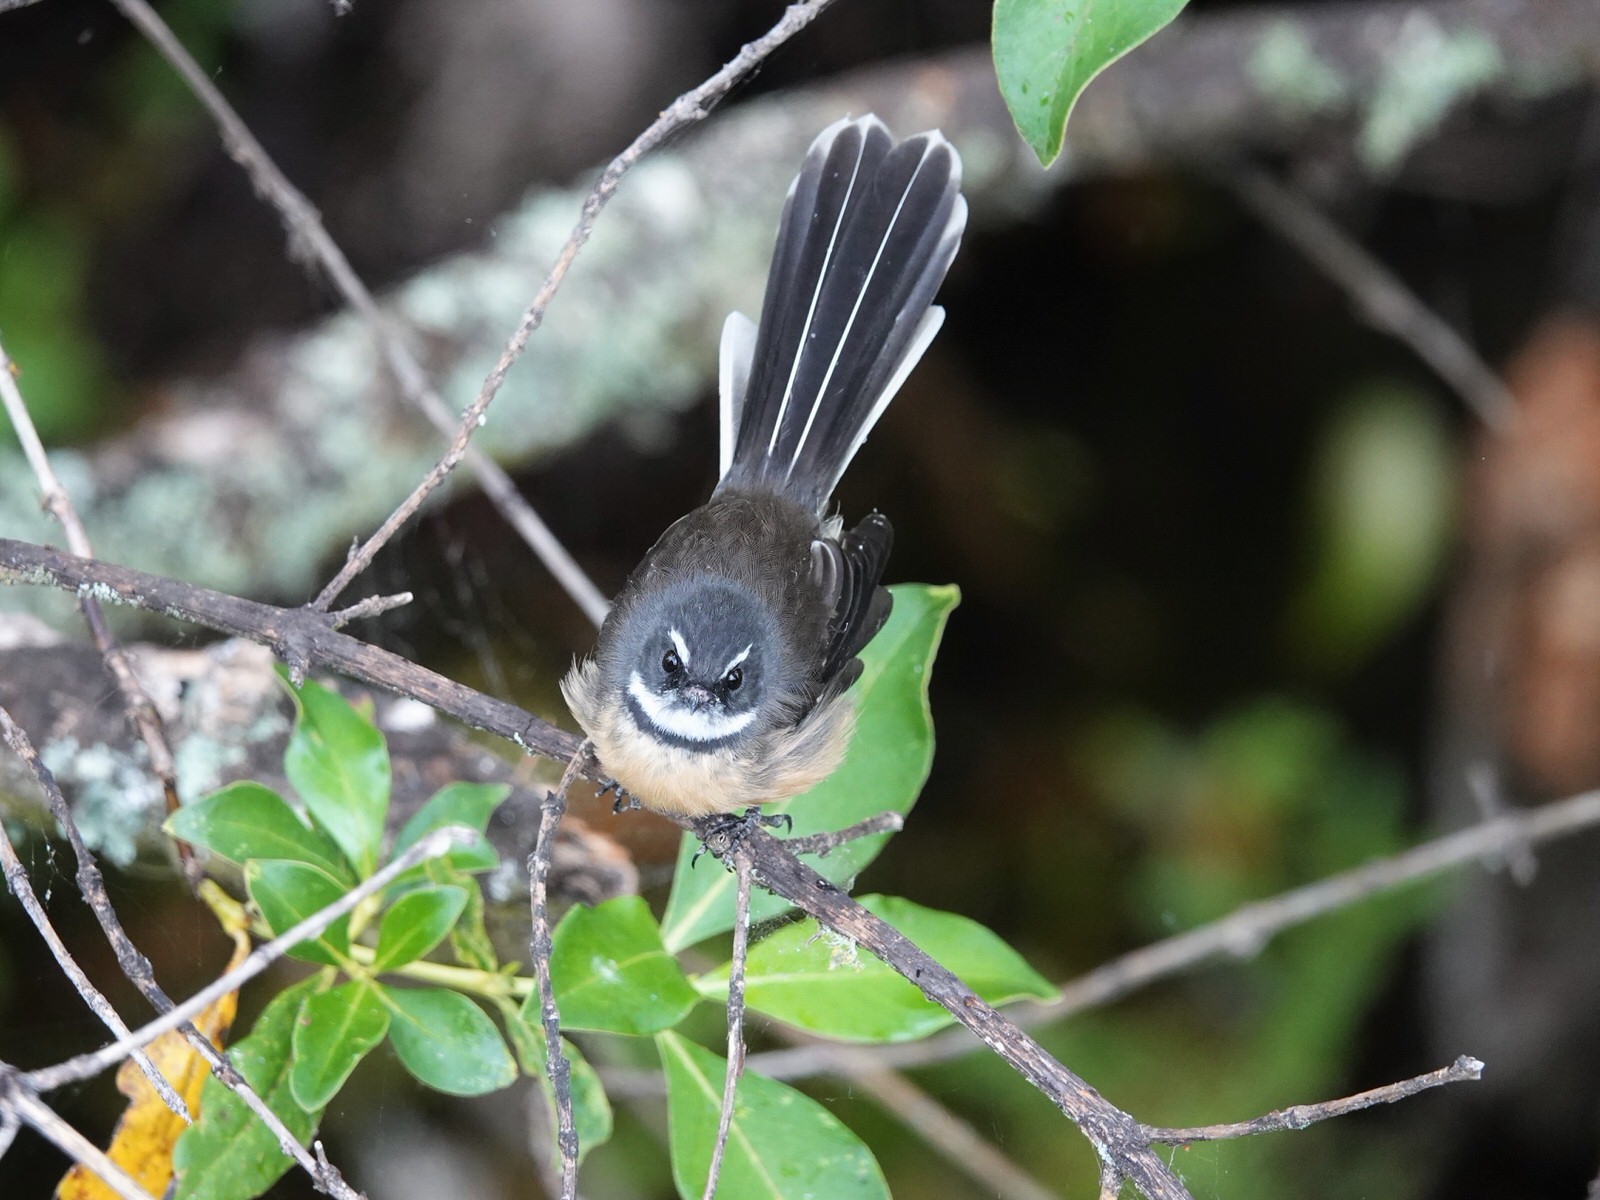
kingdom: Animalia
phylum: Chordata
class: Aves
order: Passeriformes
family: Rhipiduridae
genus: Rhipidura
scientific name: Rhipidura fuliginosa
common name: New zealand fantail
